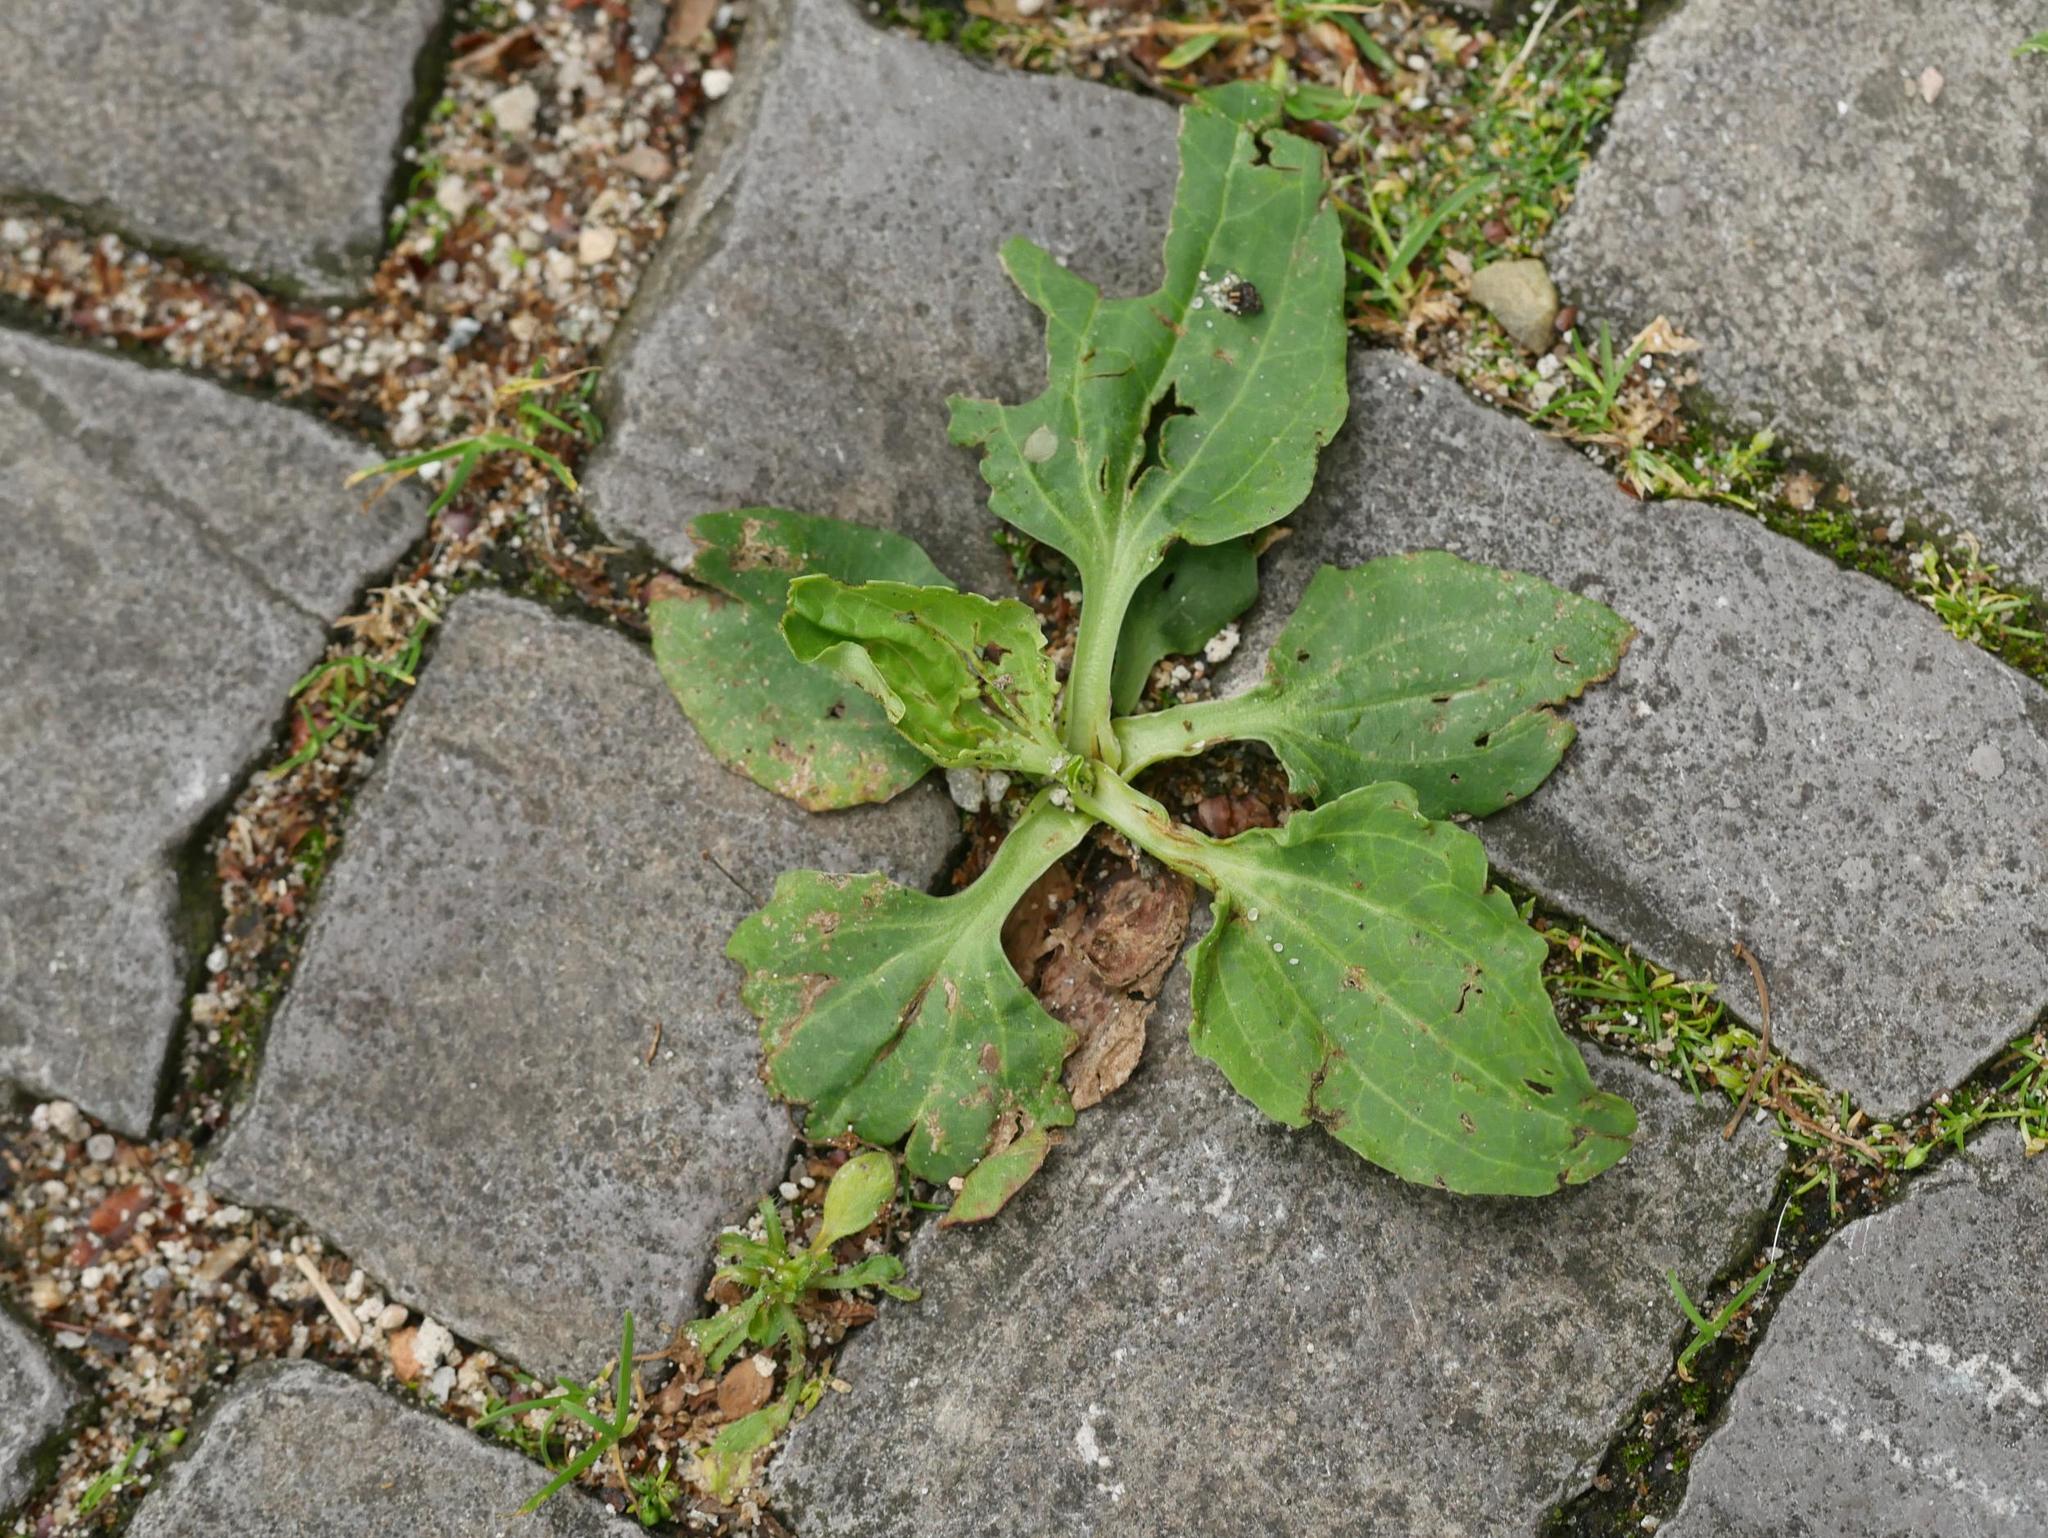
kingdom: Plantae
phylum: Tracheophyta
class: Magnoliopsida
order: Lamiales
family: Plantaginaceae
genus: Plantago
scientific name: Plantago major
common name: Common plantain
